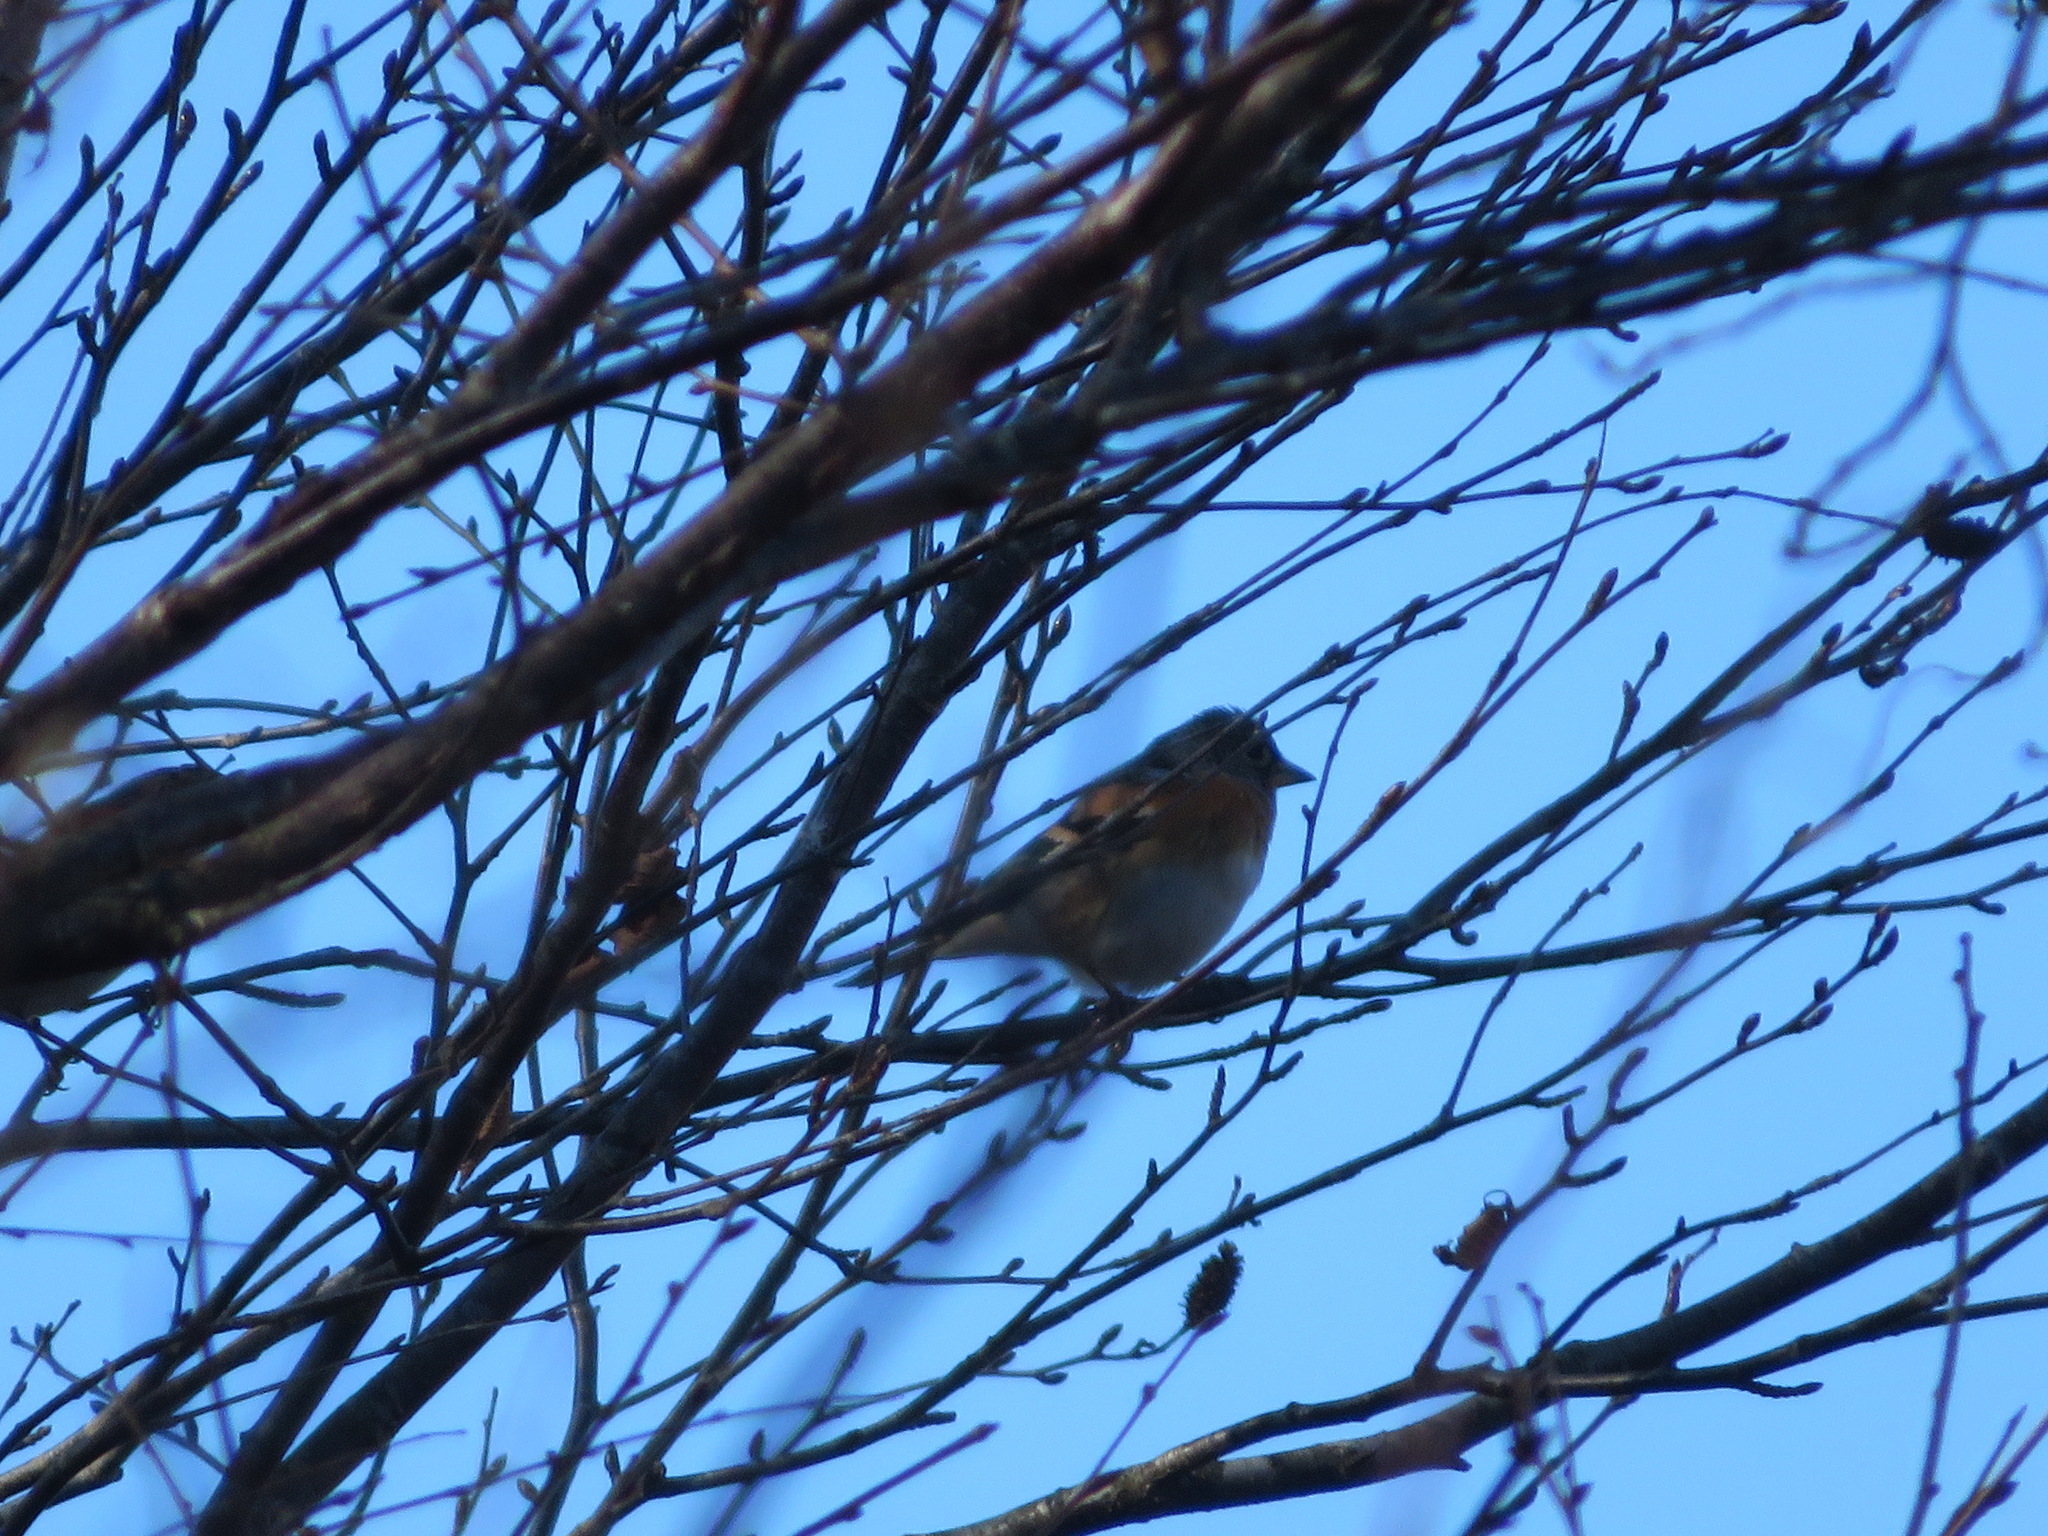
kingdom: Animalia
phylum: Chordata
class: Aves
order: Passeriformes
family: Fringillidae
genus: Fringilla
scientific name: Fringilla montifringilla
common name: Brambling
